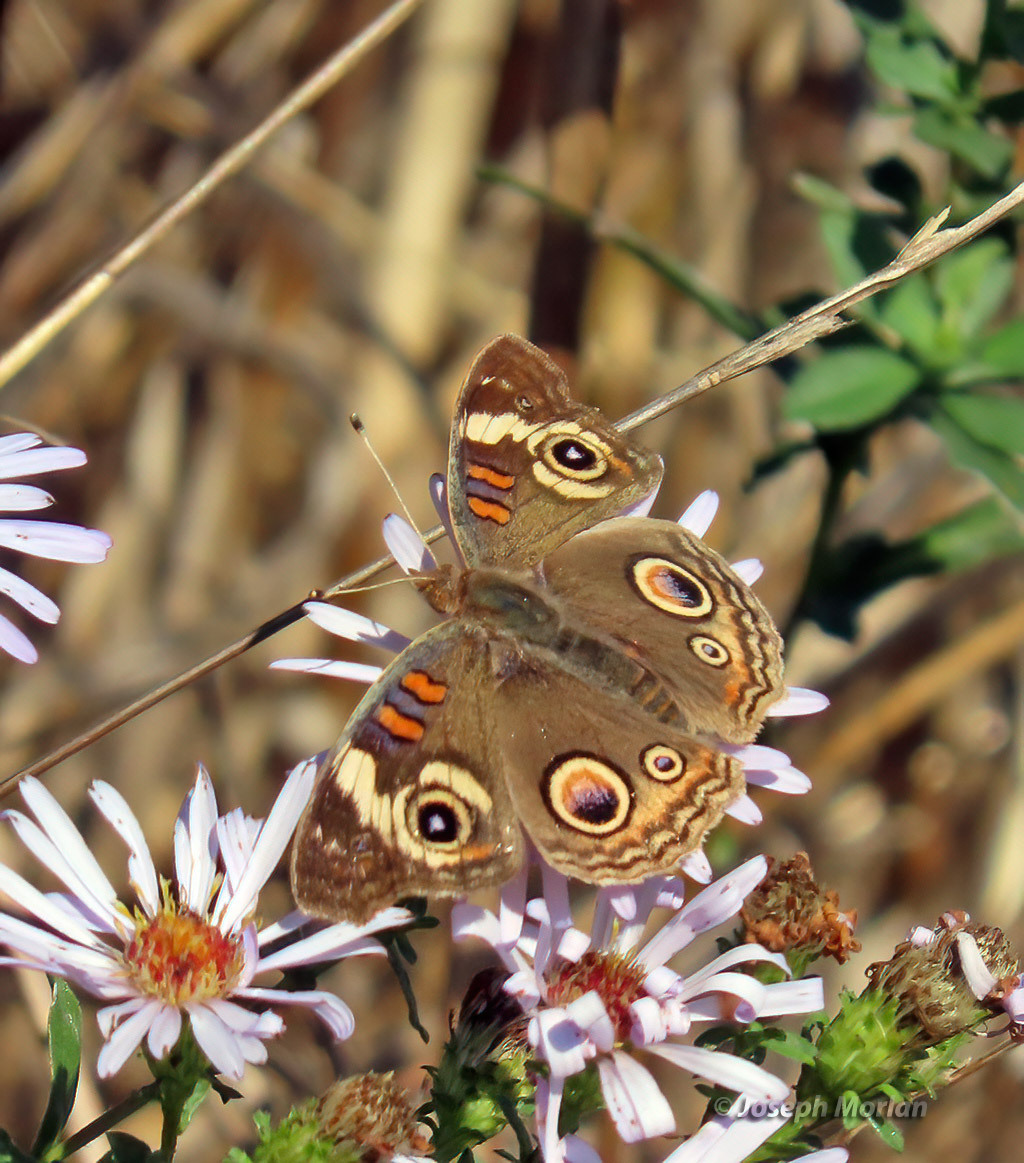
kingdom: Animalia
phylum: Arthropoda
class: Insecta
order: Lepidoptera
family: Nymphalidae
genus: Junonia
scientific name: Junonia grisea
